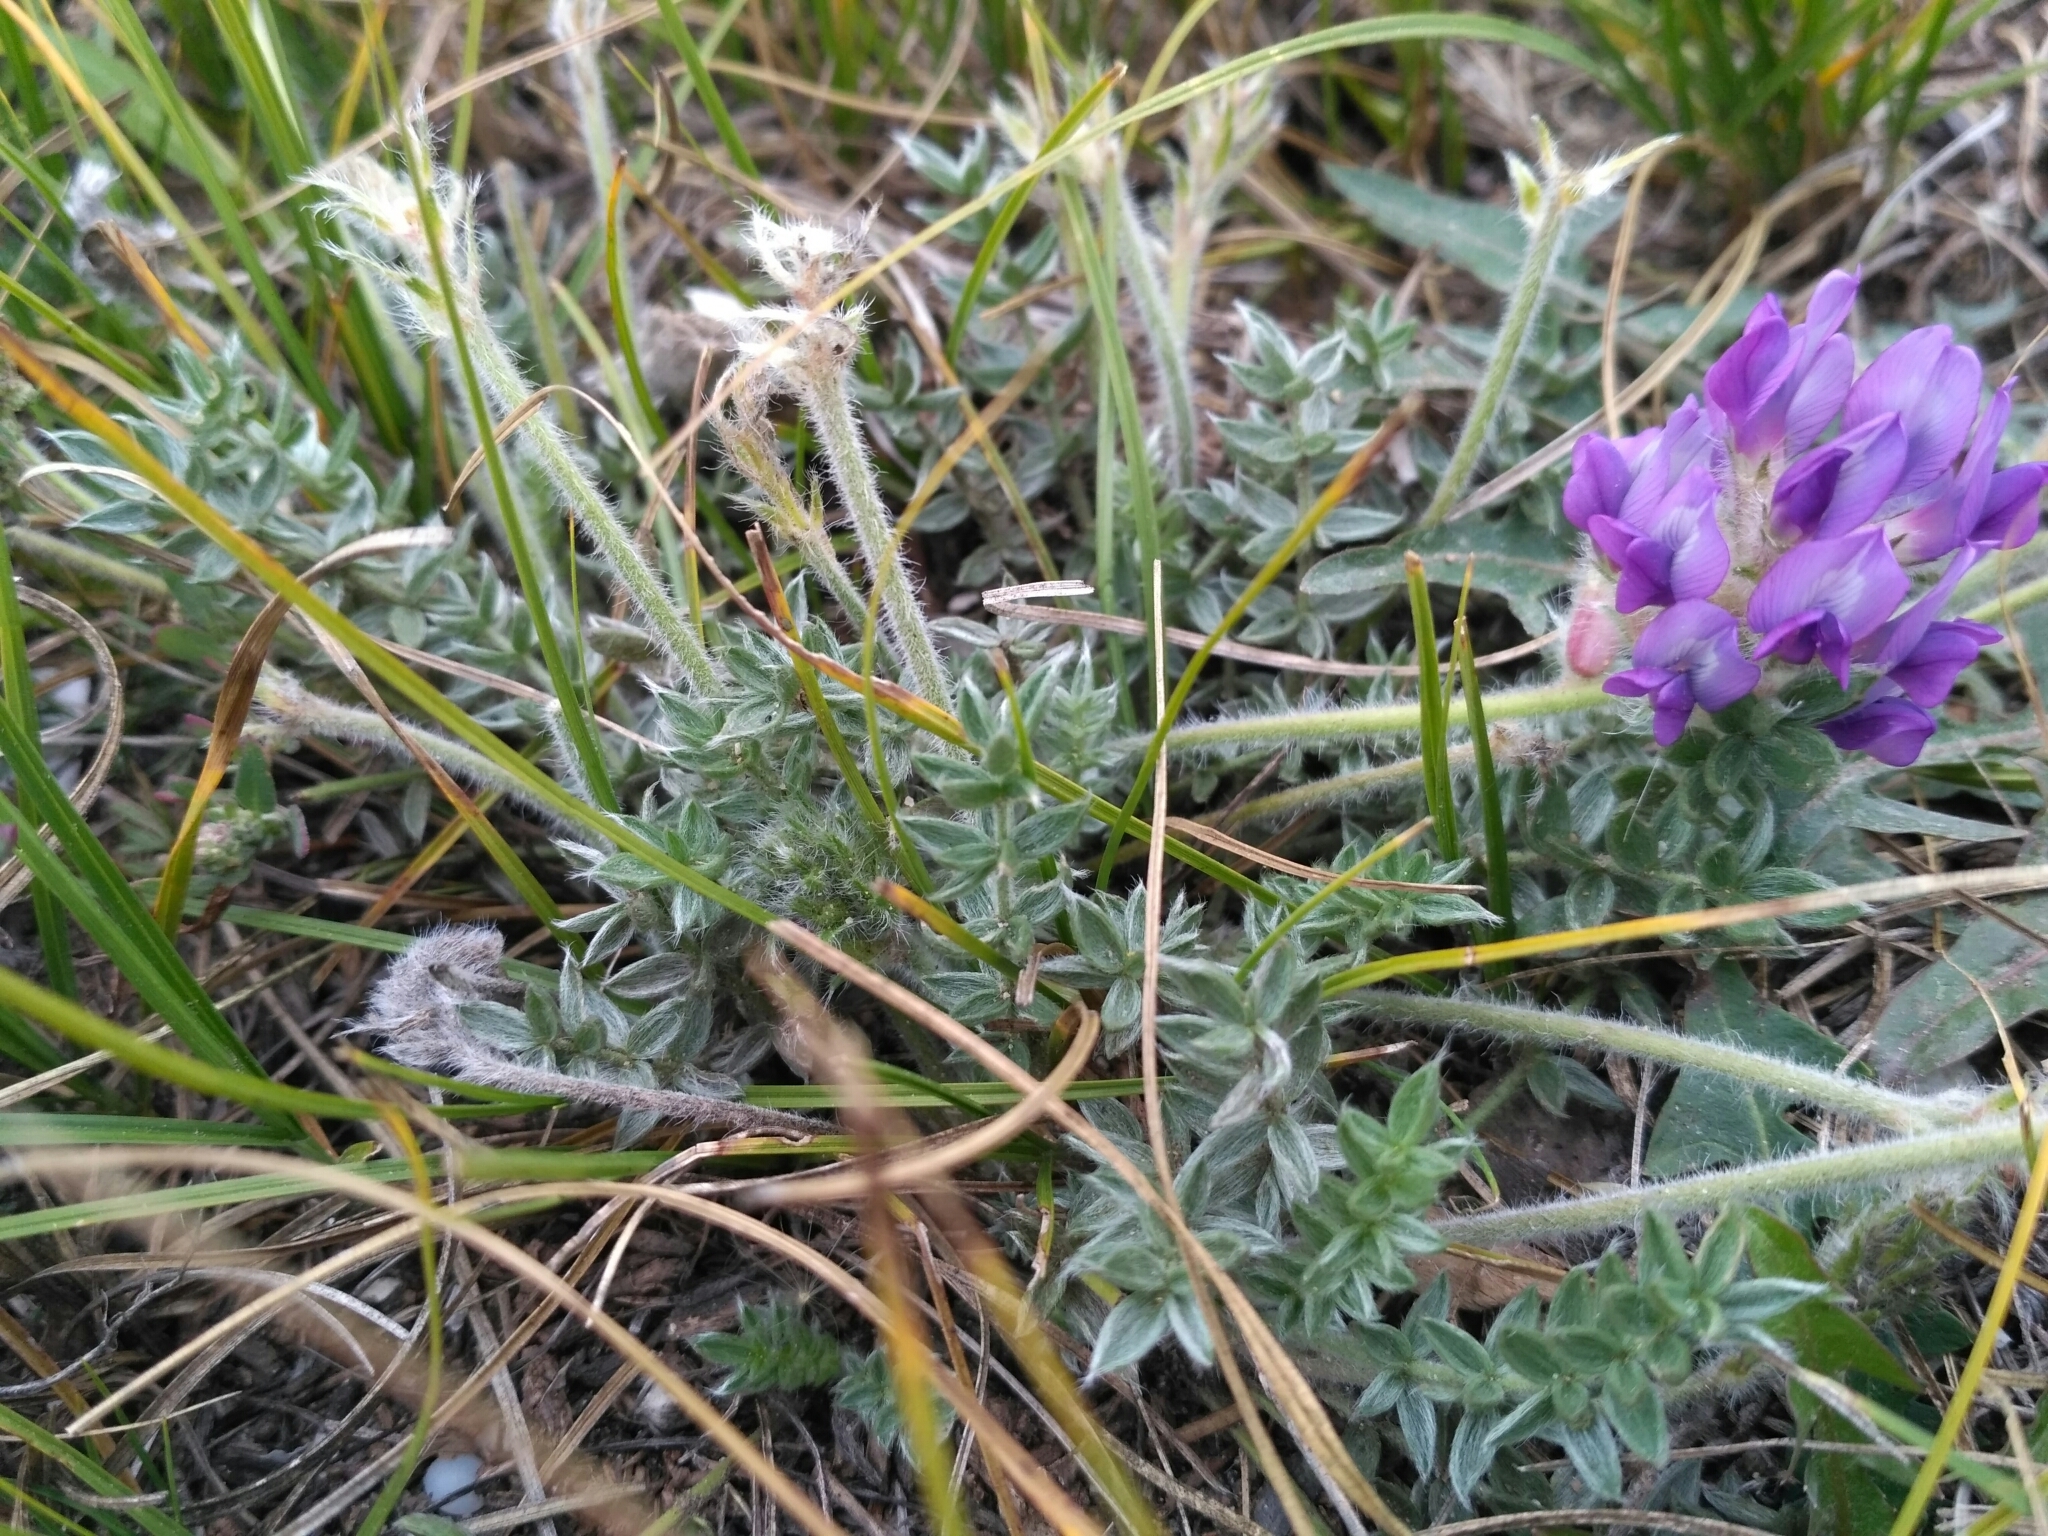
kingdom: Plantae
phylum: Tracheophyta
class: Magnoliopsida
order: Fabales
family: Fabaceae
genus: Oxytropis
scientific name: Oxytropis turczaninovii
